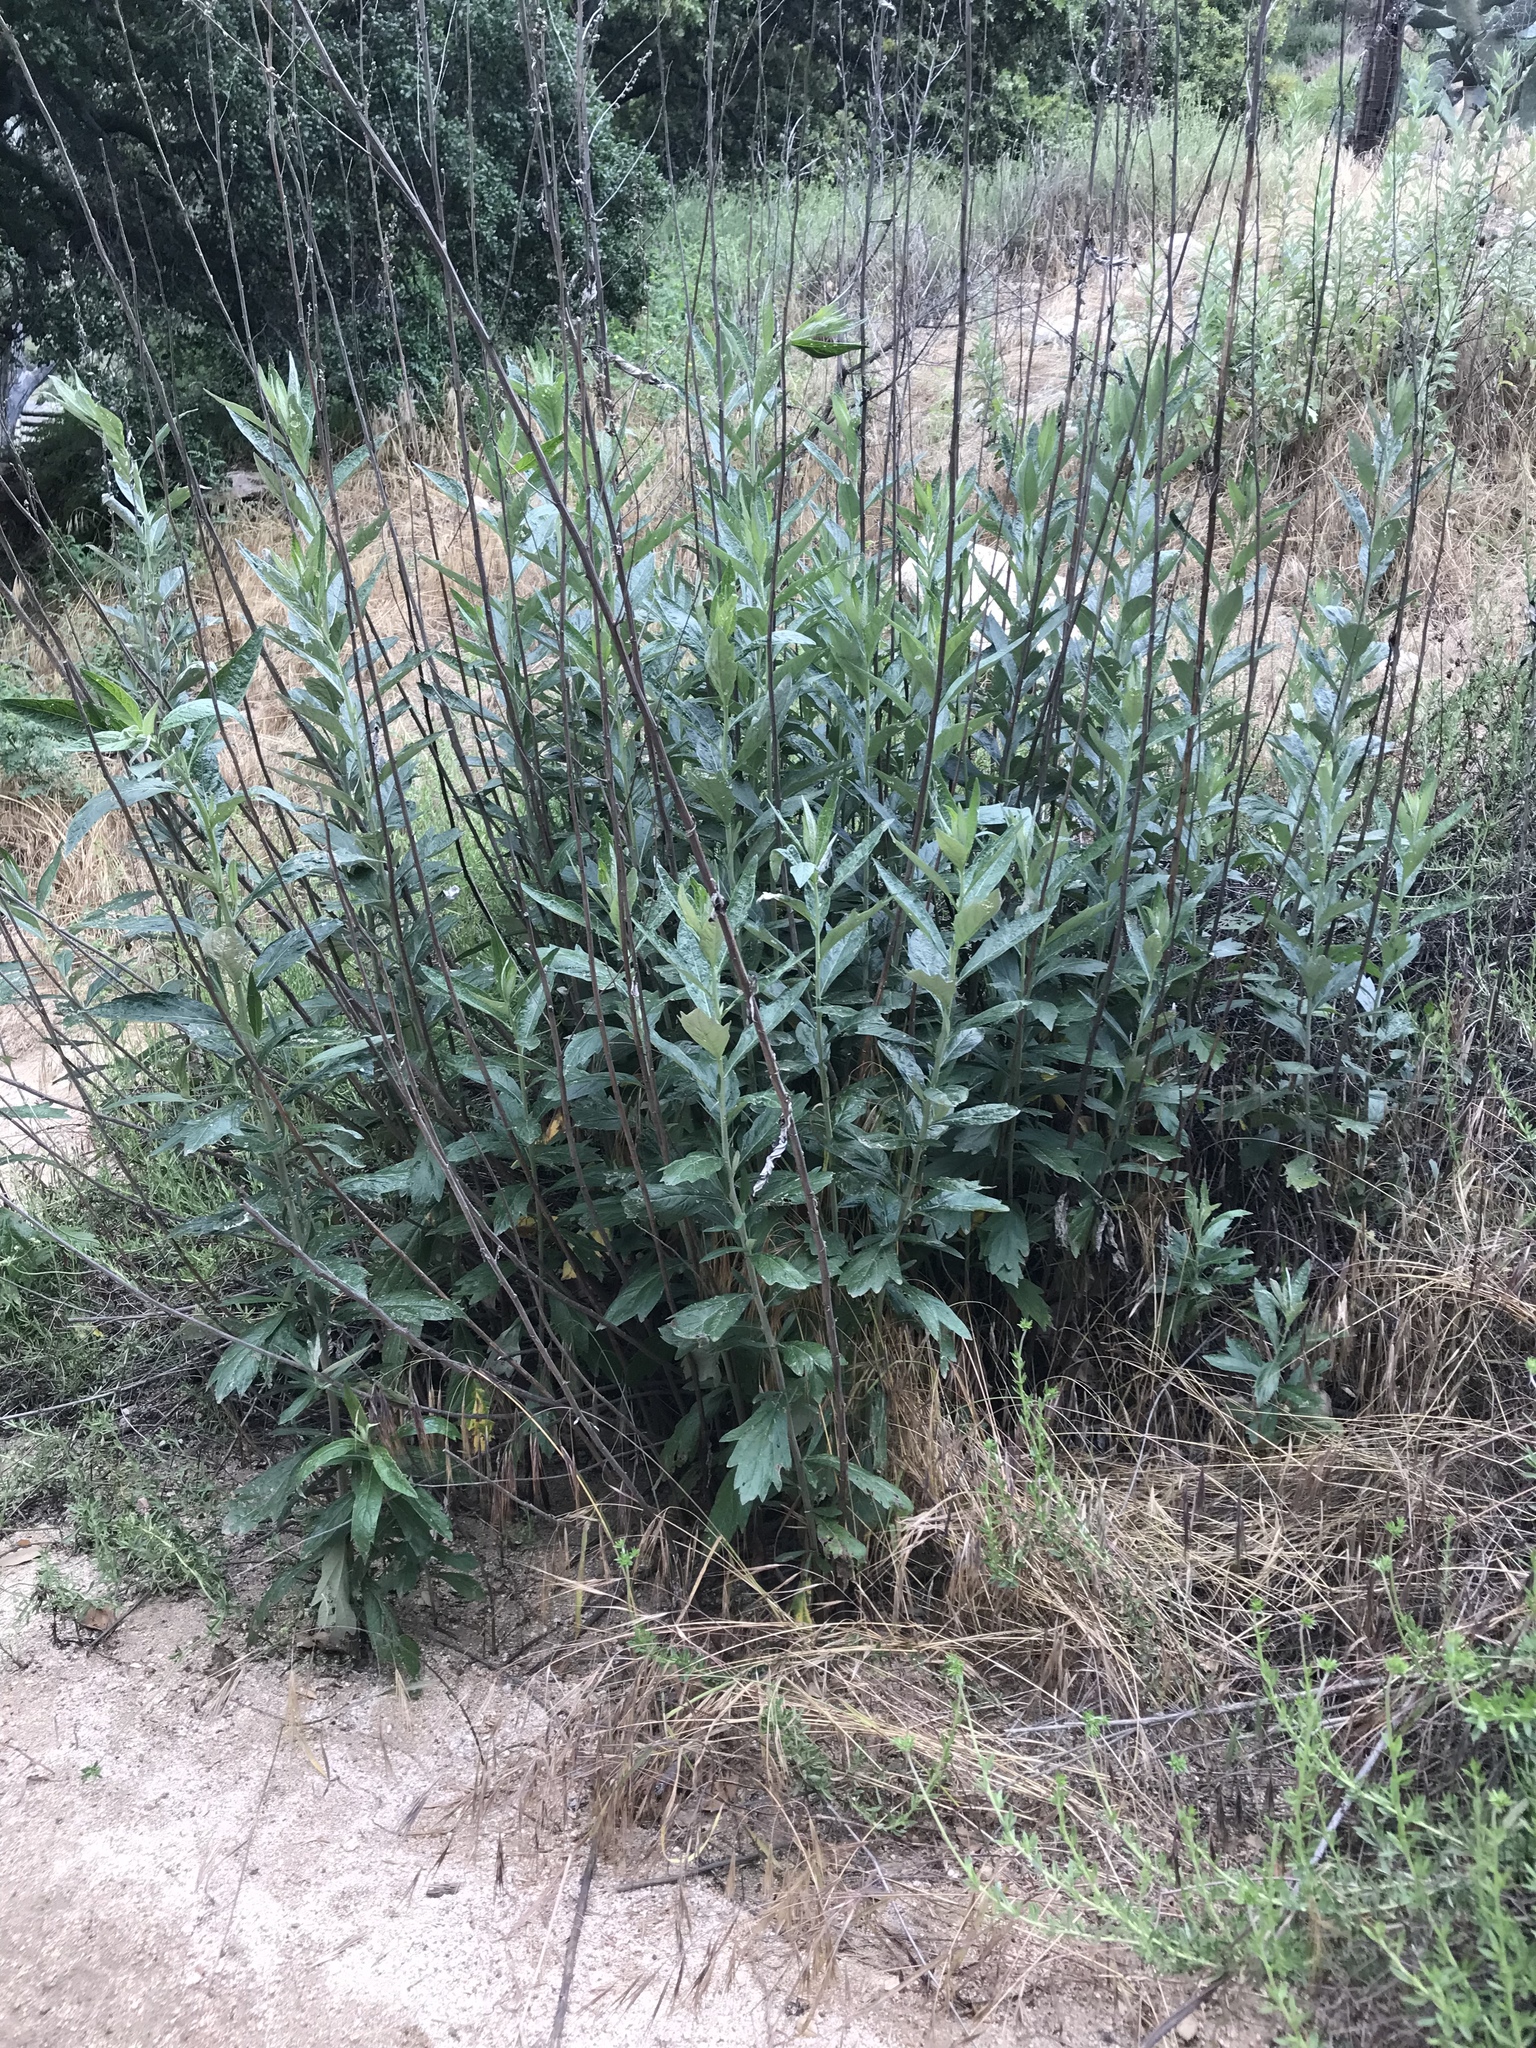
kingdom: Plantae
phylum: Tracheophyta
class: Magnoliopsida
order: Asterales
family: Asteraceae
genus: Artemisia
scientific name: Artemisia douglasiana
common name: Northwest mugwort
